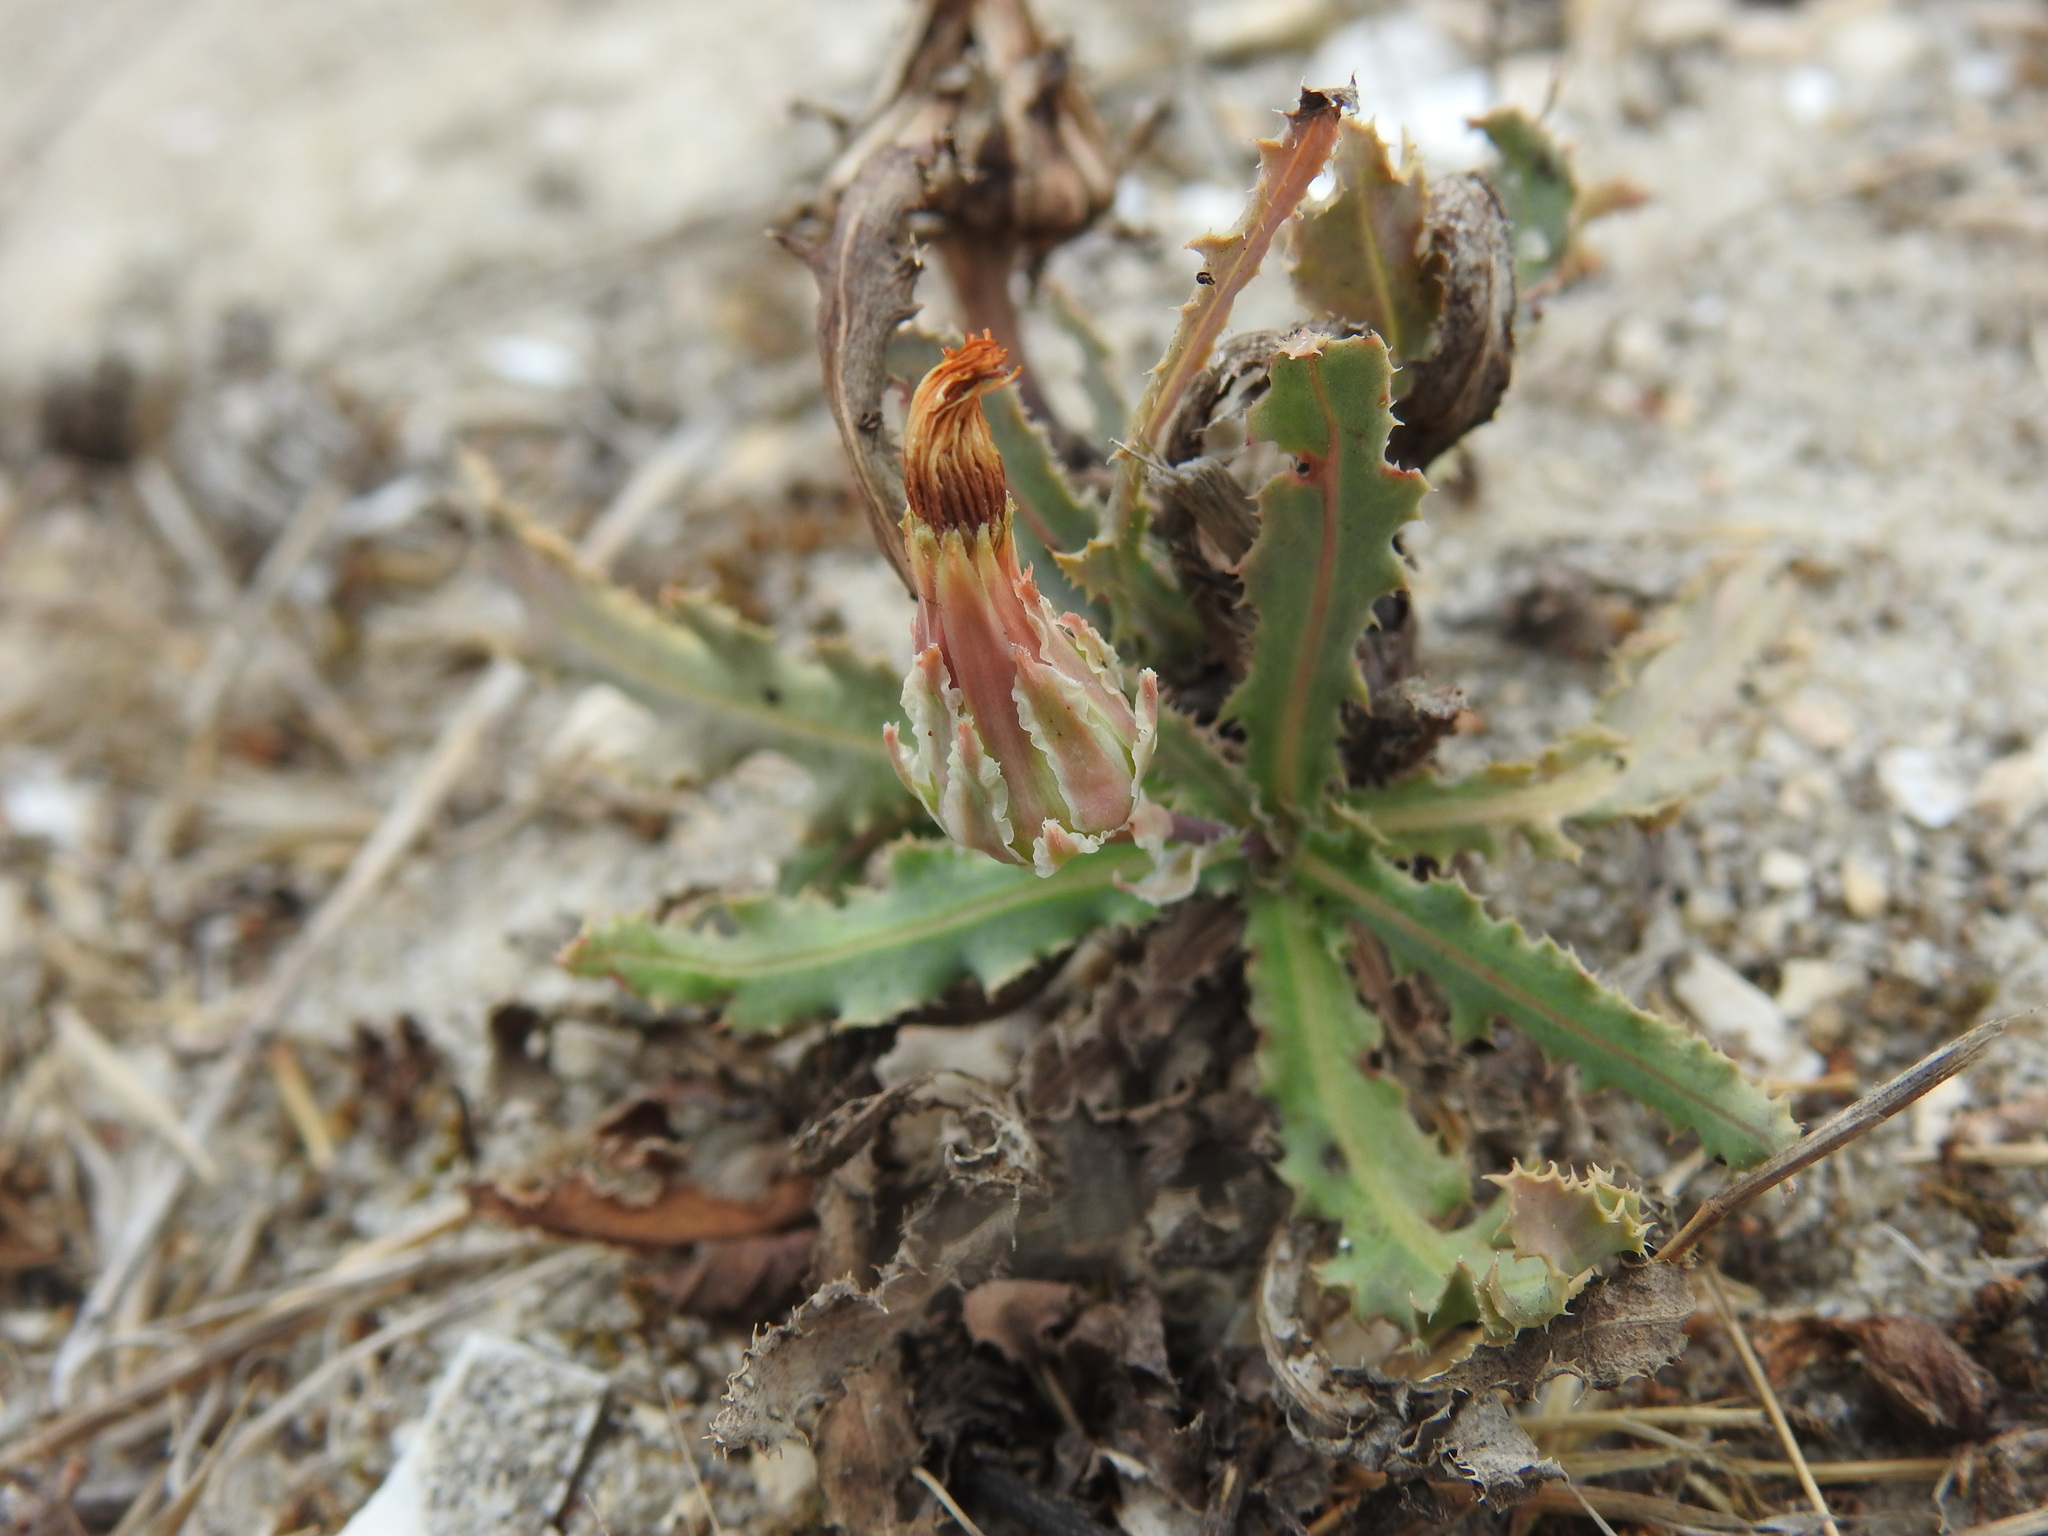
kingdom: Plantae
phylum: Tracheophyta
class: Magnoliopsida
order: Asterales
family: Asteraceae
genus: Reichardia
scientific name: Reichardia gaditana
